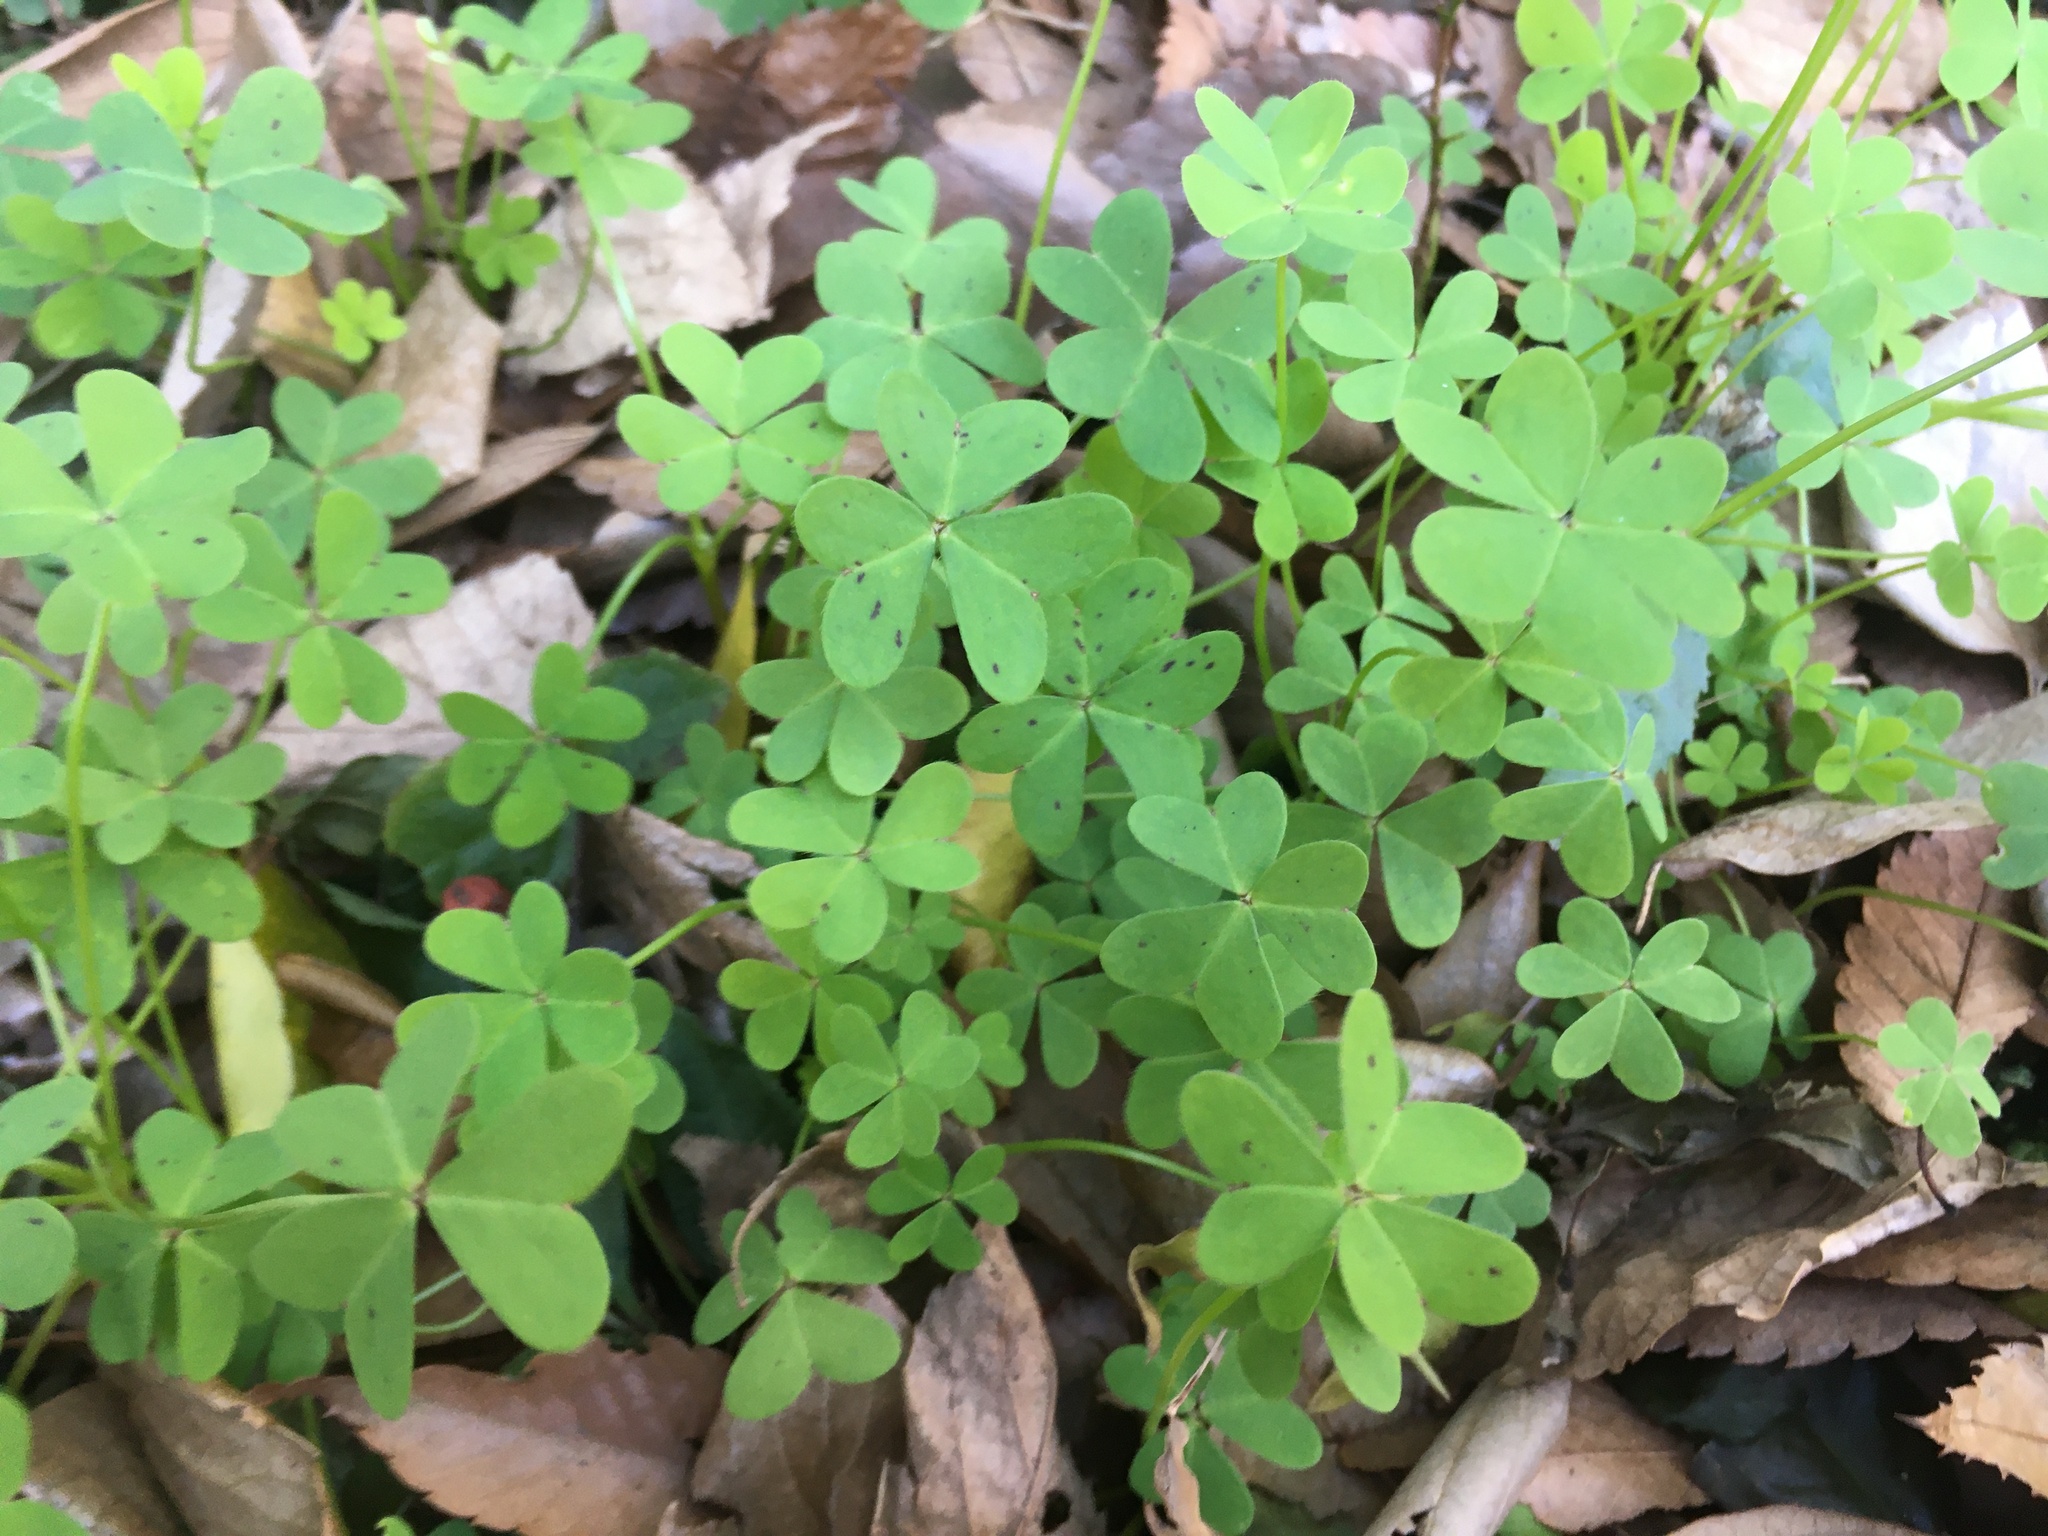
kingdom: Plantae
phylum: Tracheophyta
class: Magnoliopsida
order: Oxalidales
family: Oxalidaceae
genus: Oxalis
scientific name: Oxalis pes-caprae
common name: Bermuda-buttercup
